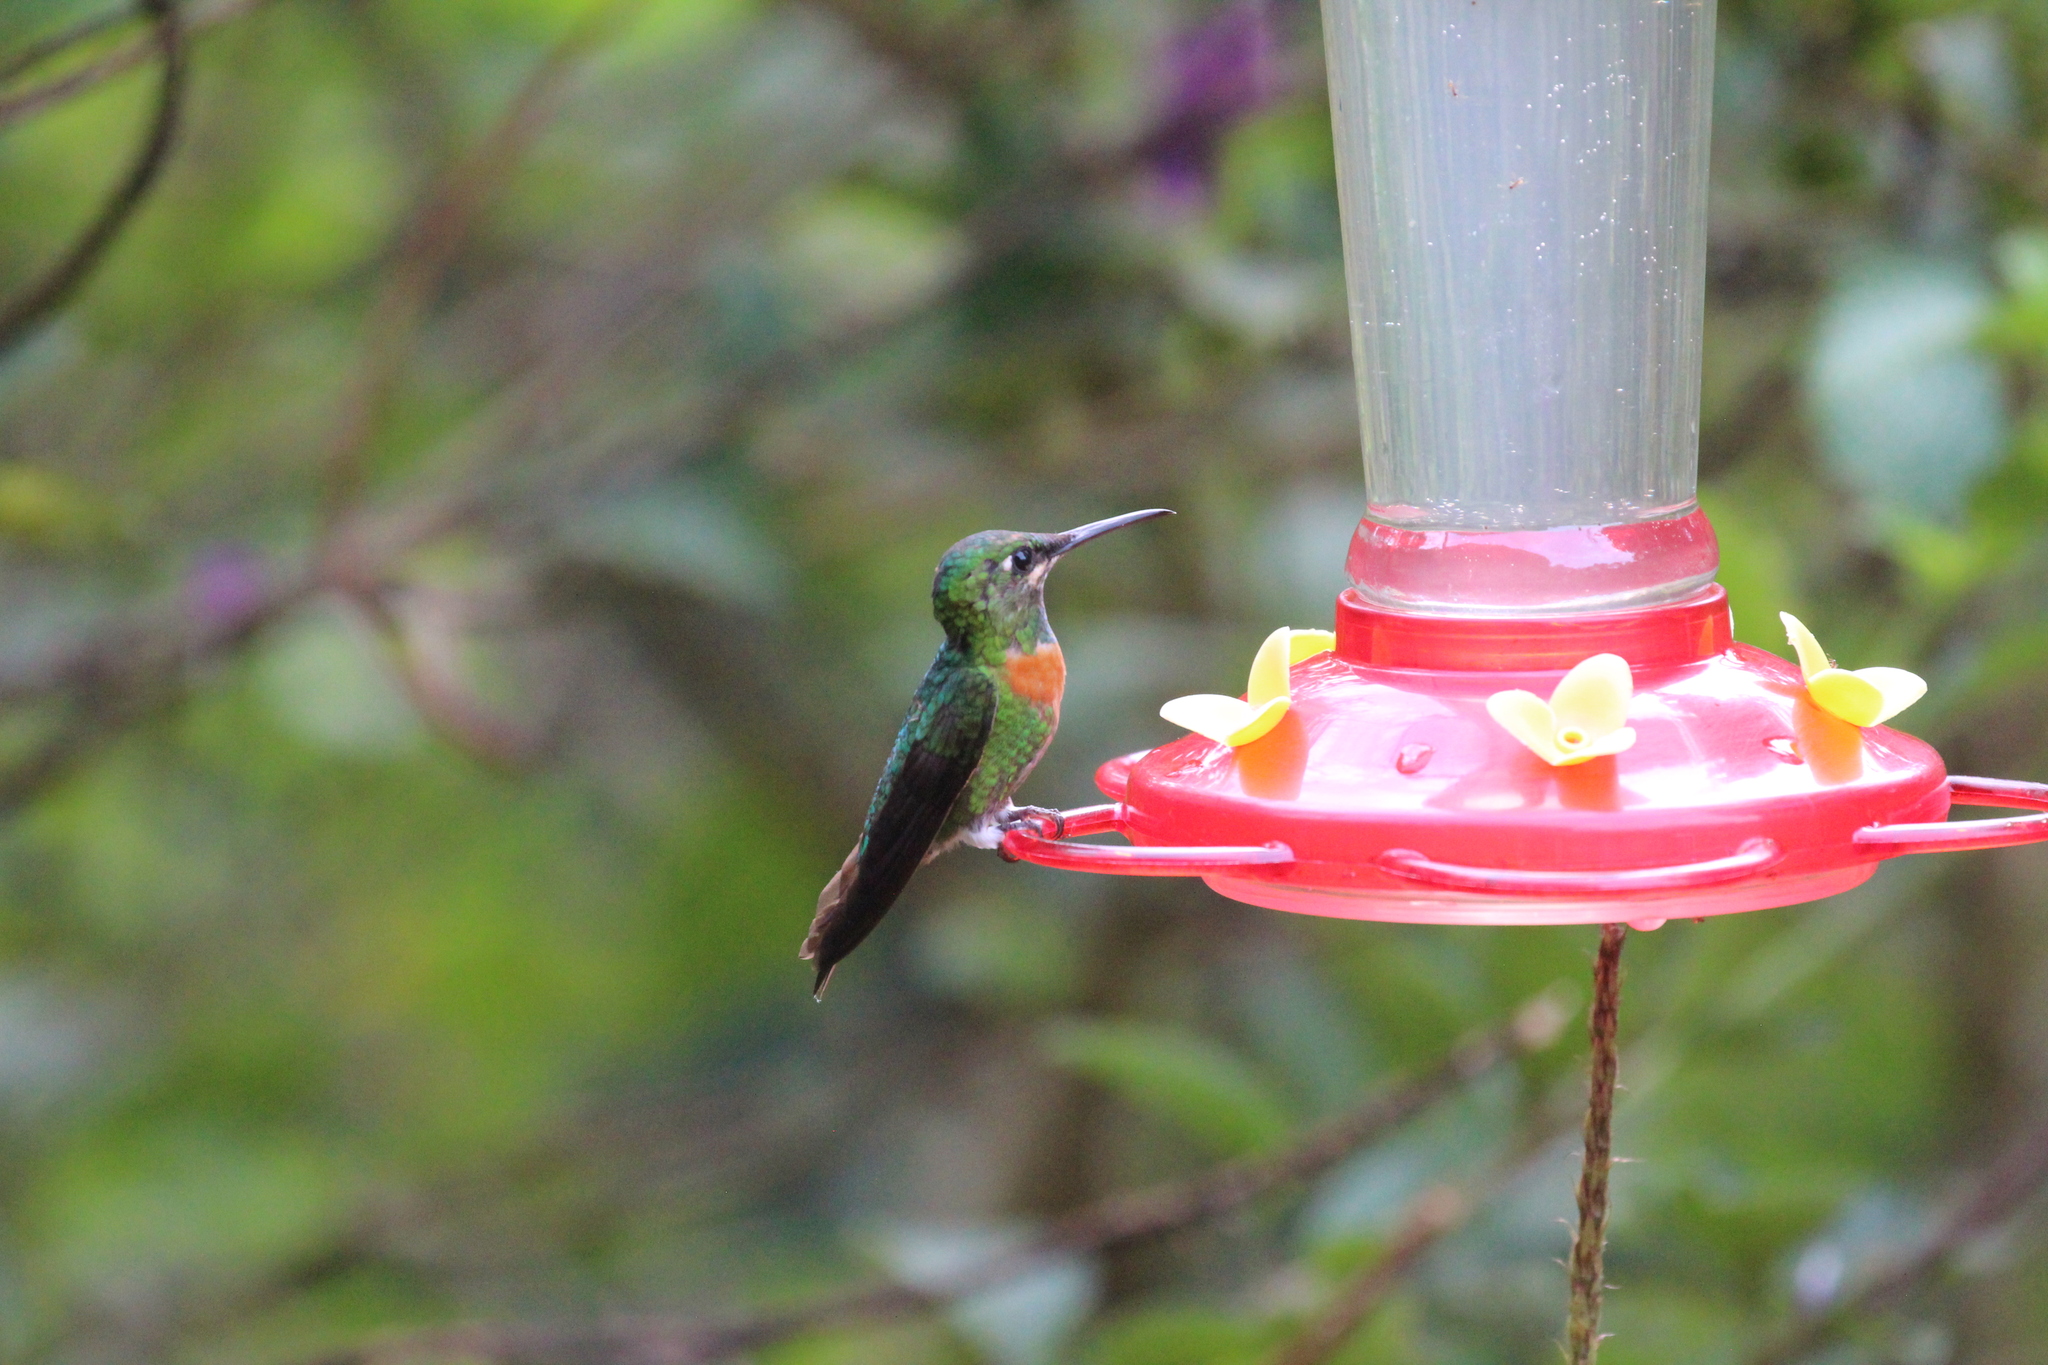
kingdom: Animalia
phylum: Chordata
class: Aves
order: Apodiformes
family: Trochilidae
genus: Heliodoxa
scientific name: Heliodoxa aurescens
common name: Gould's jewelfront
